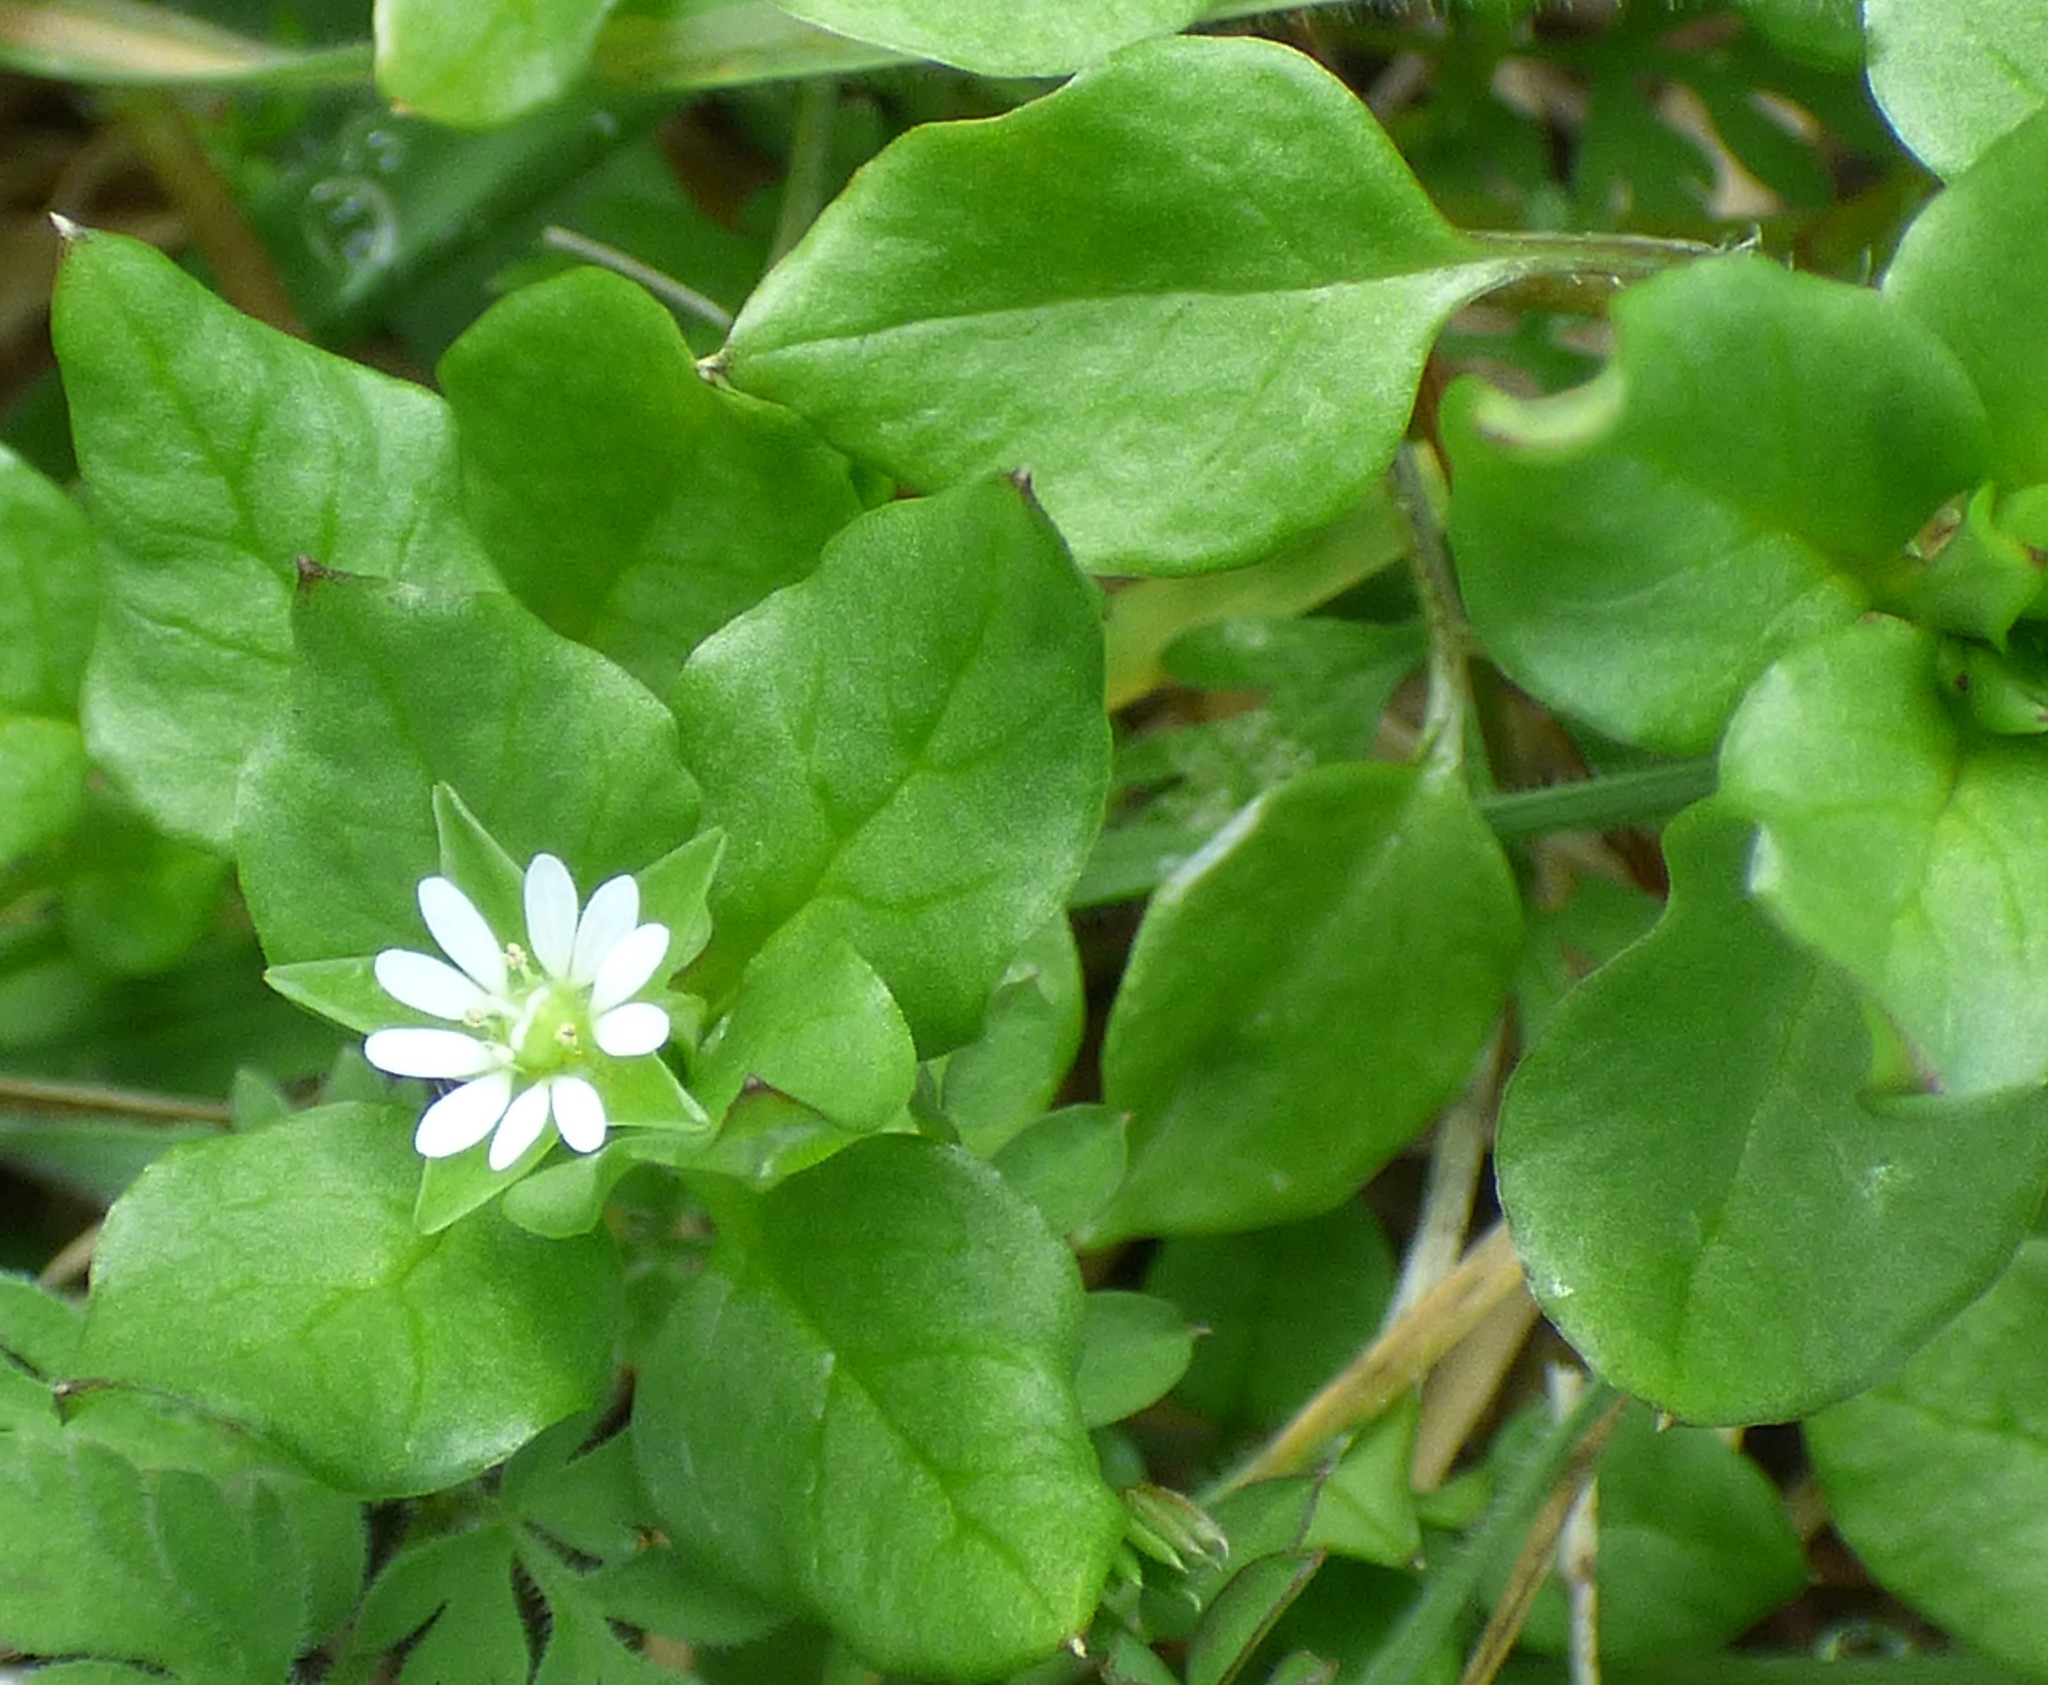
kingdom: Plantae
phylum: Tracheophyta
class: Magnoliopsida
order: Caryophyllales
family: Caryophyllaceae
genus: Stellaria
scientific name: Stellaria media
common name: Common chickweed
